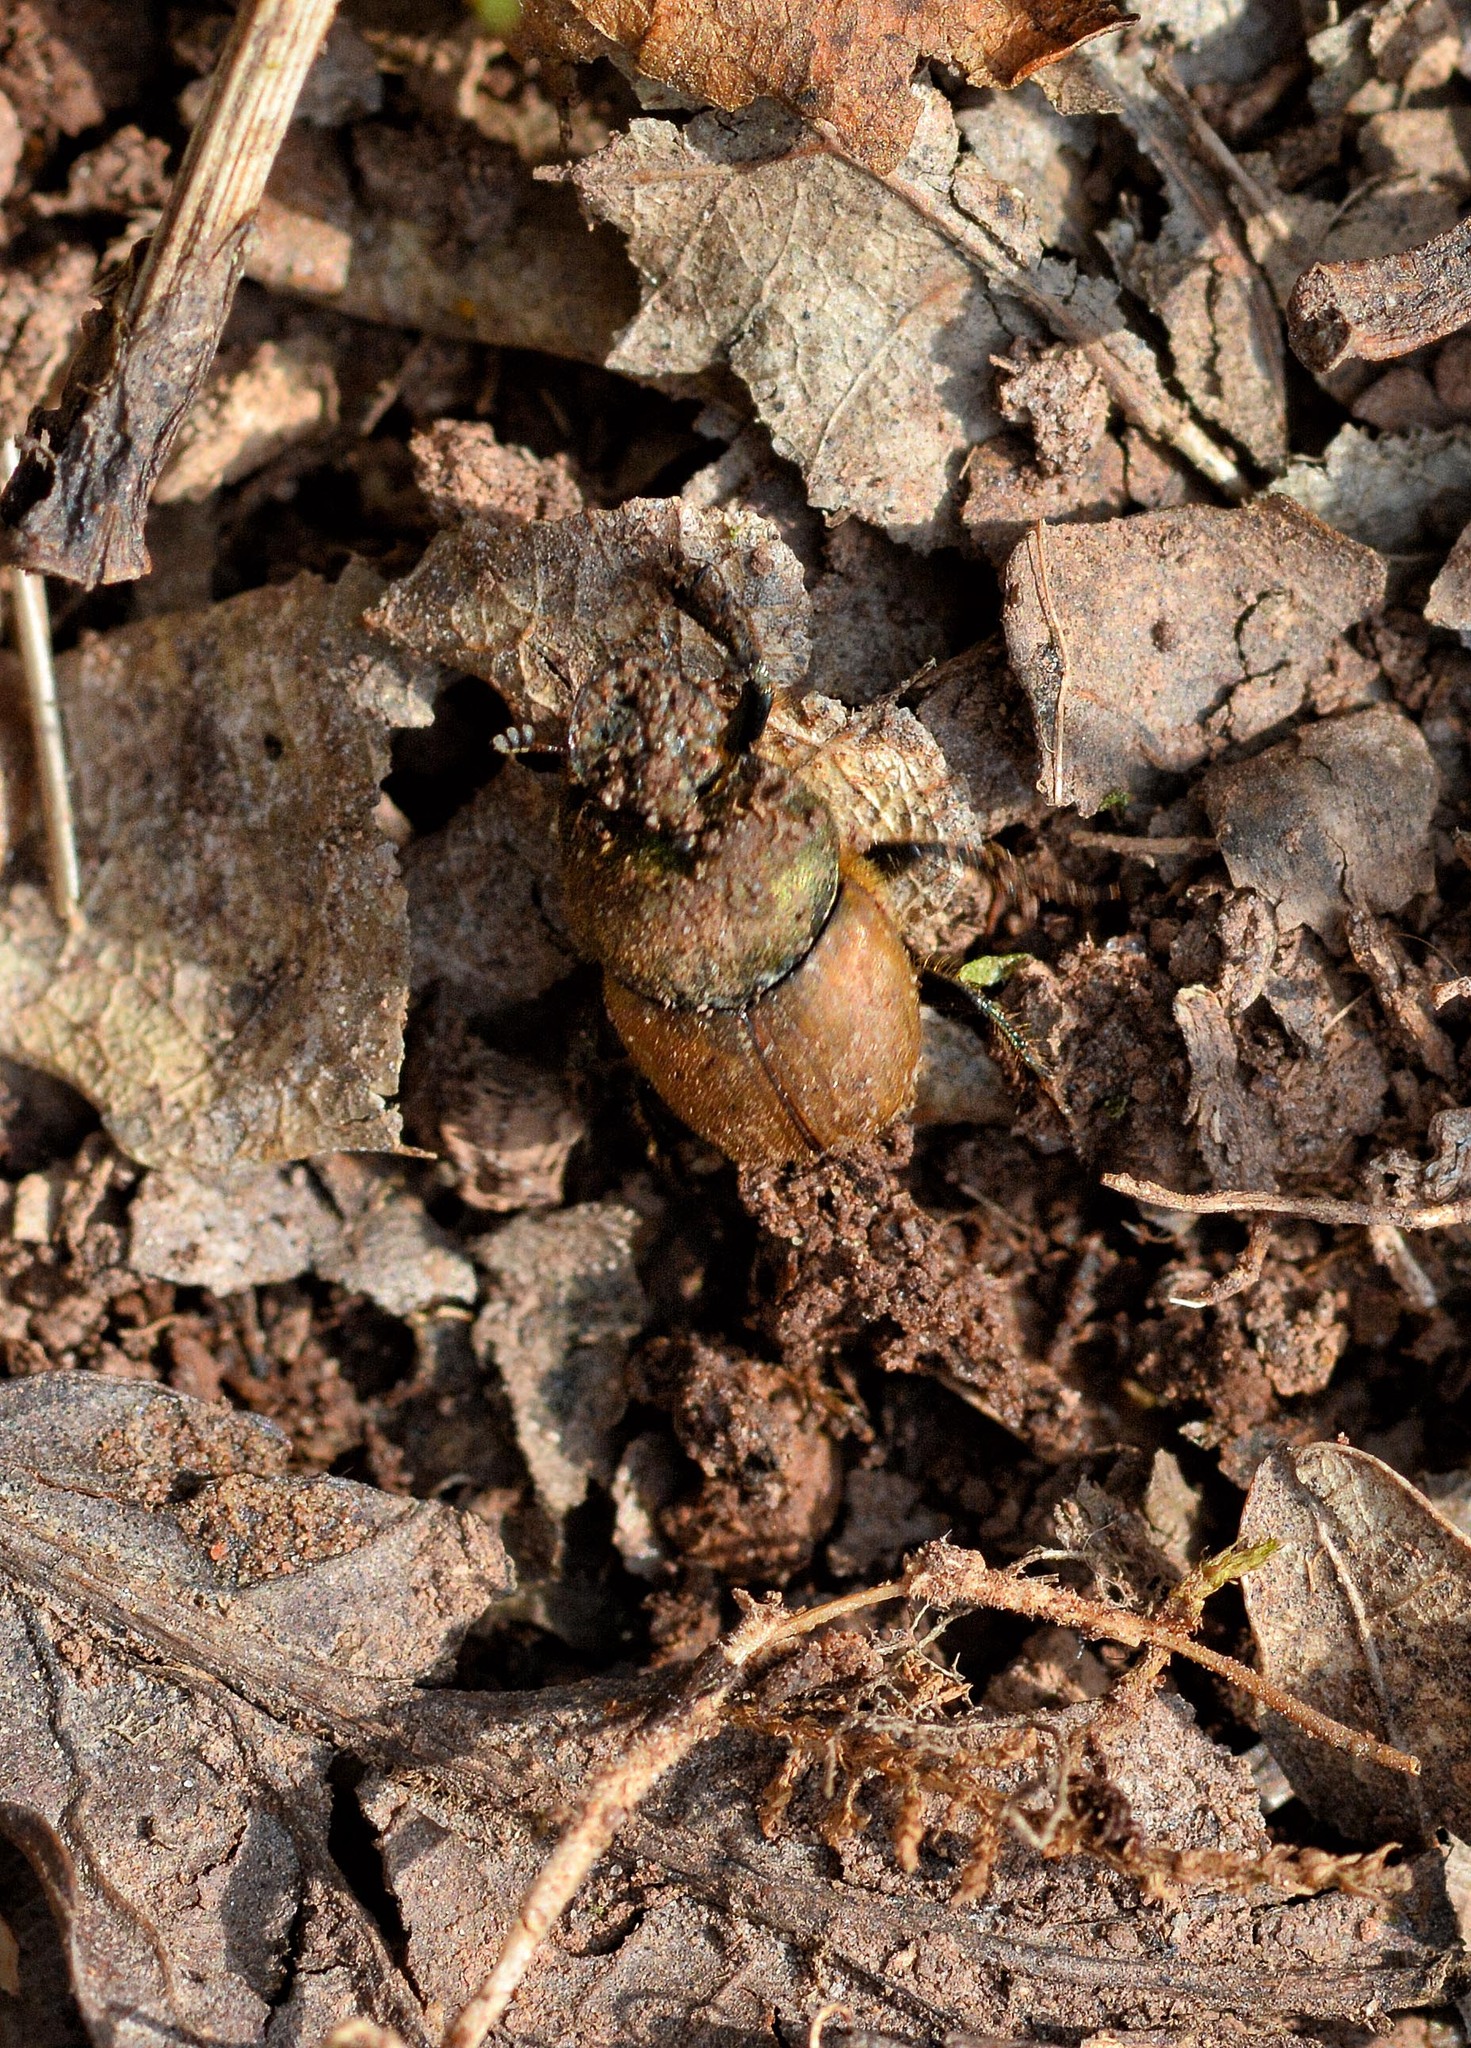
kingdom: Animalia
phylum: Arthropoda
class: Insecta
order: Coleoptera
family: Scarabaeidae
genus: Onthophagus
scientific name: Onthophagus coenobita
